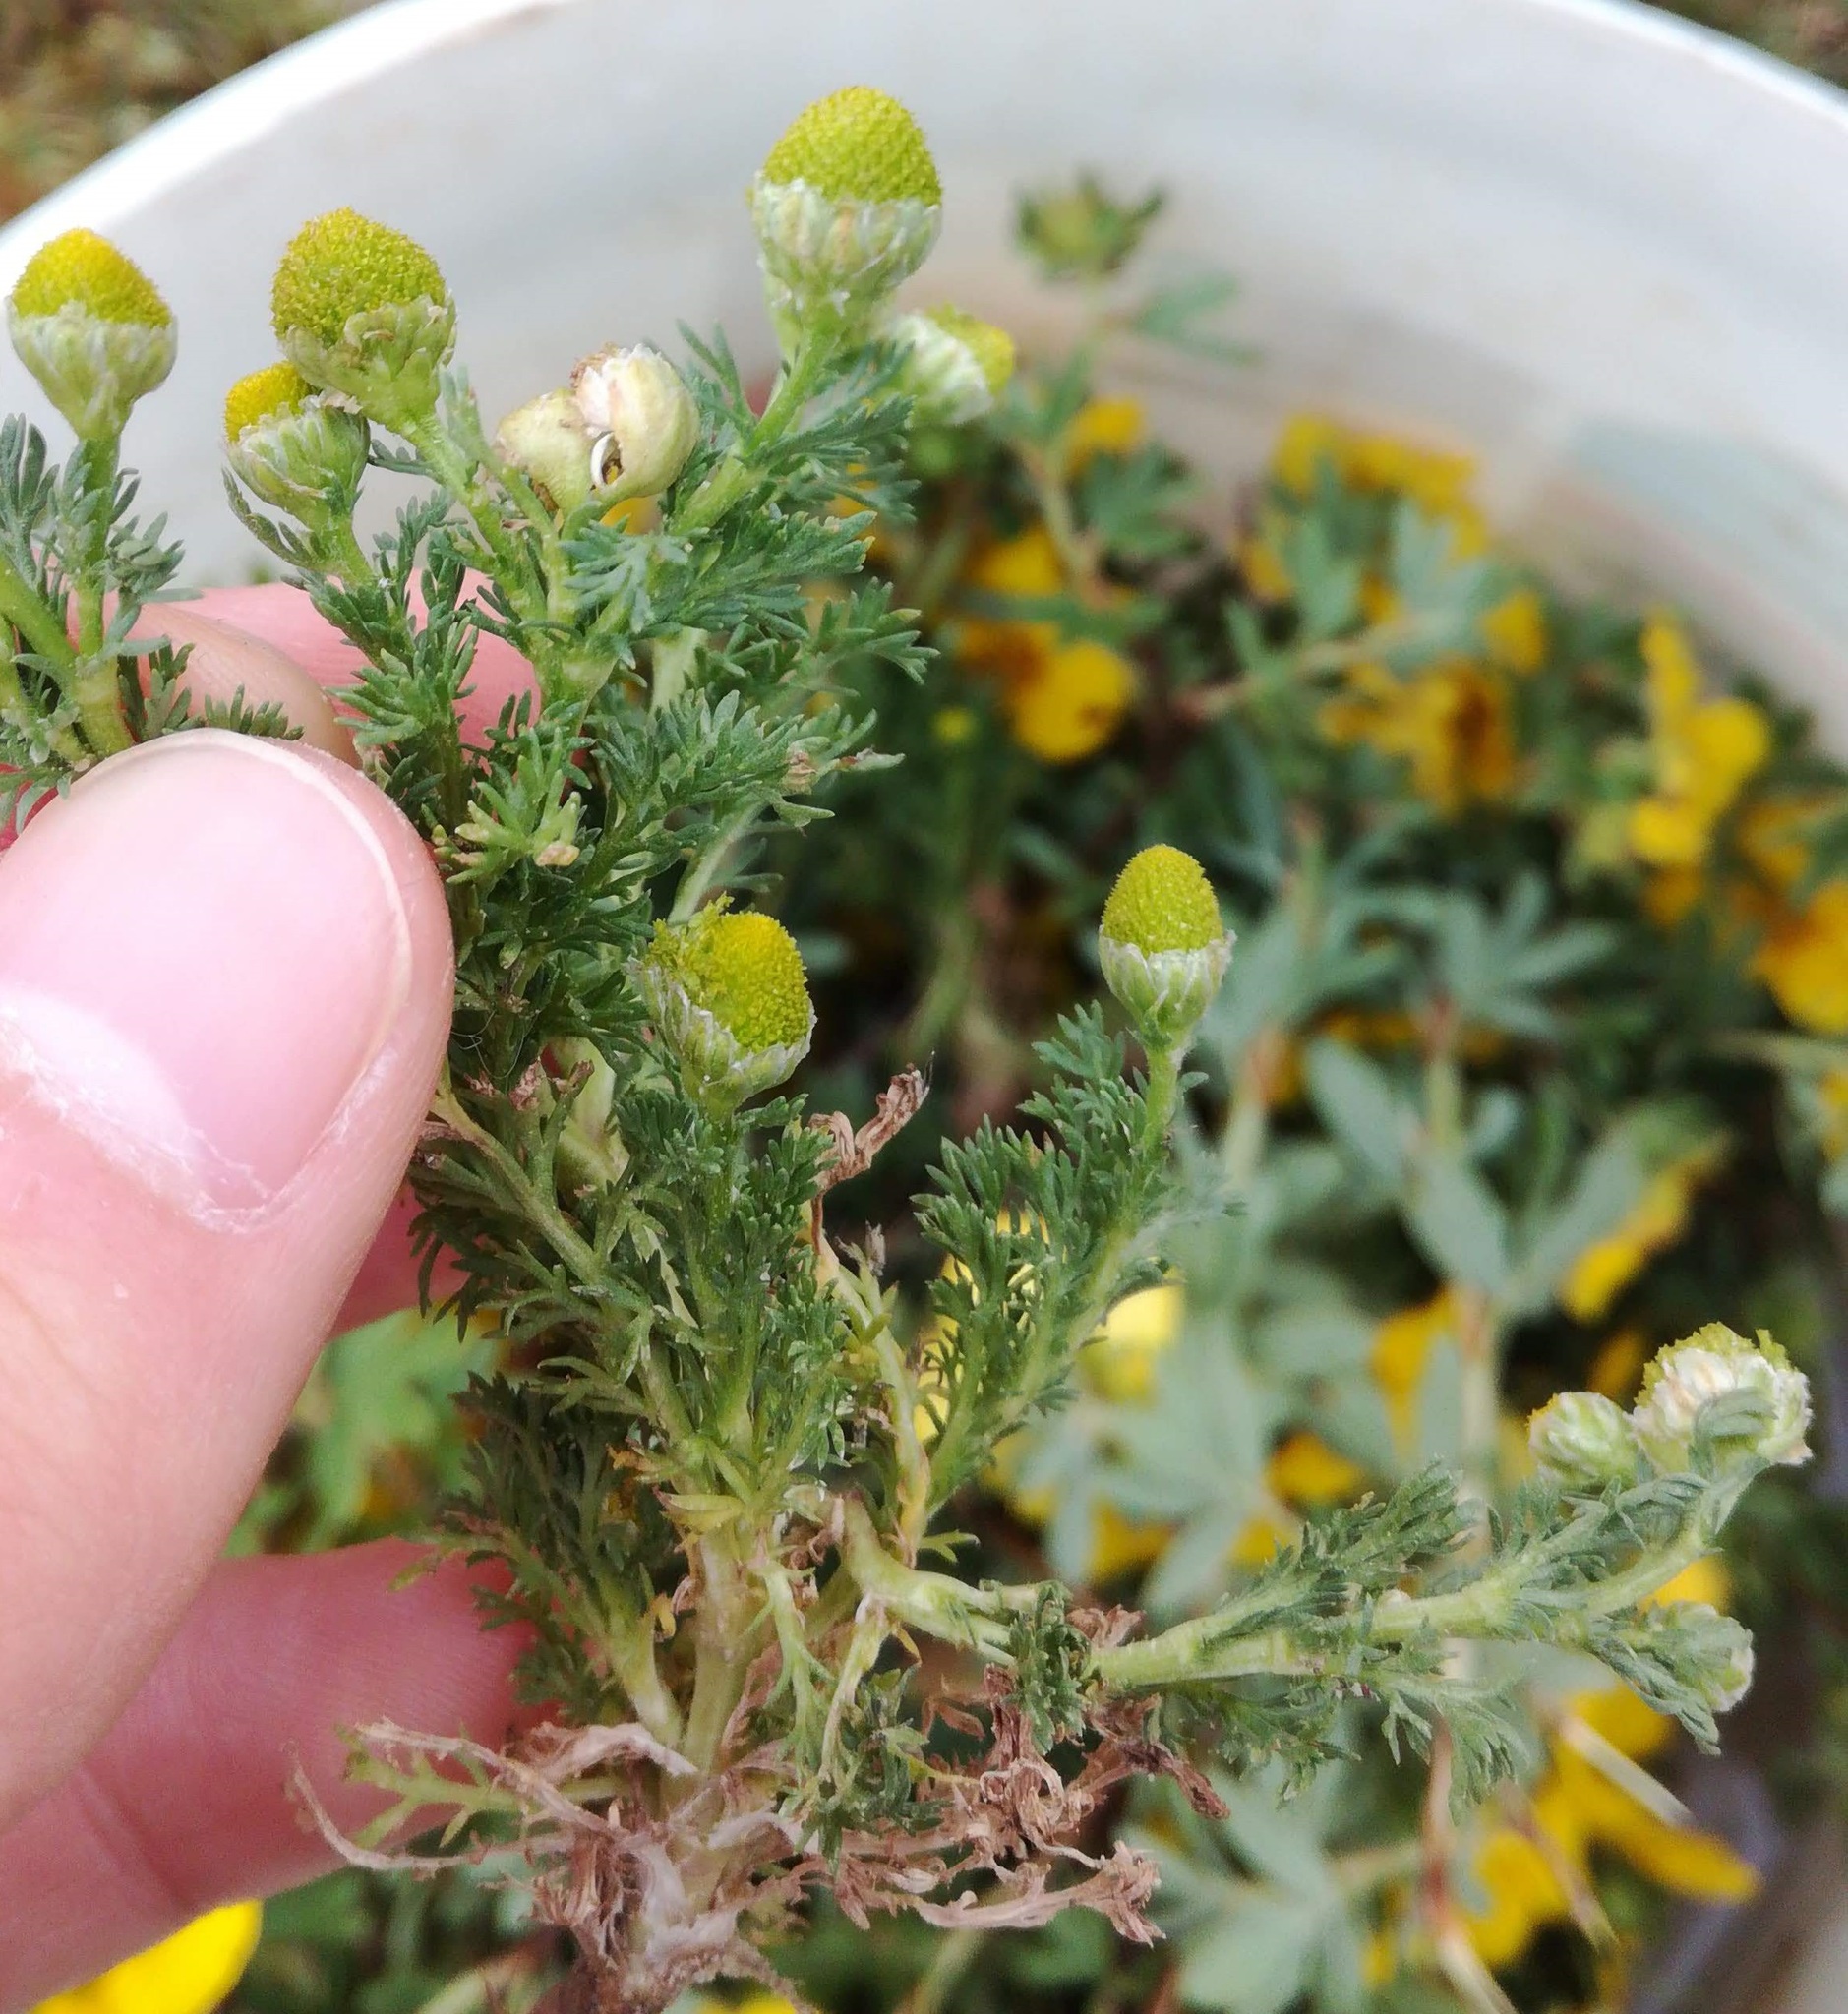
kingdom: Plantae
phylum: Tracheophyta
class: Magnoliopsida
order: Asterales
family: Asteraceae
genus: Matricaria
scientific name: Matricaria discoidea
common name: Disc mayweed
